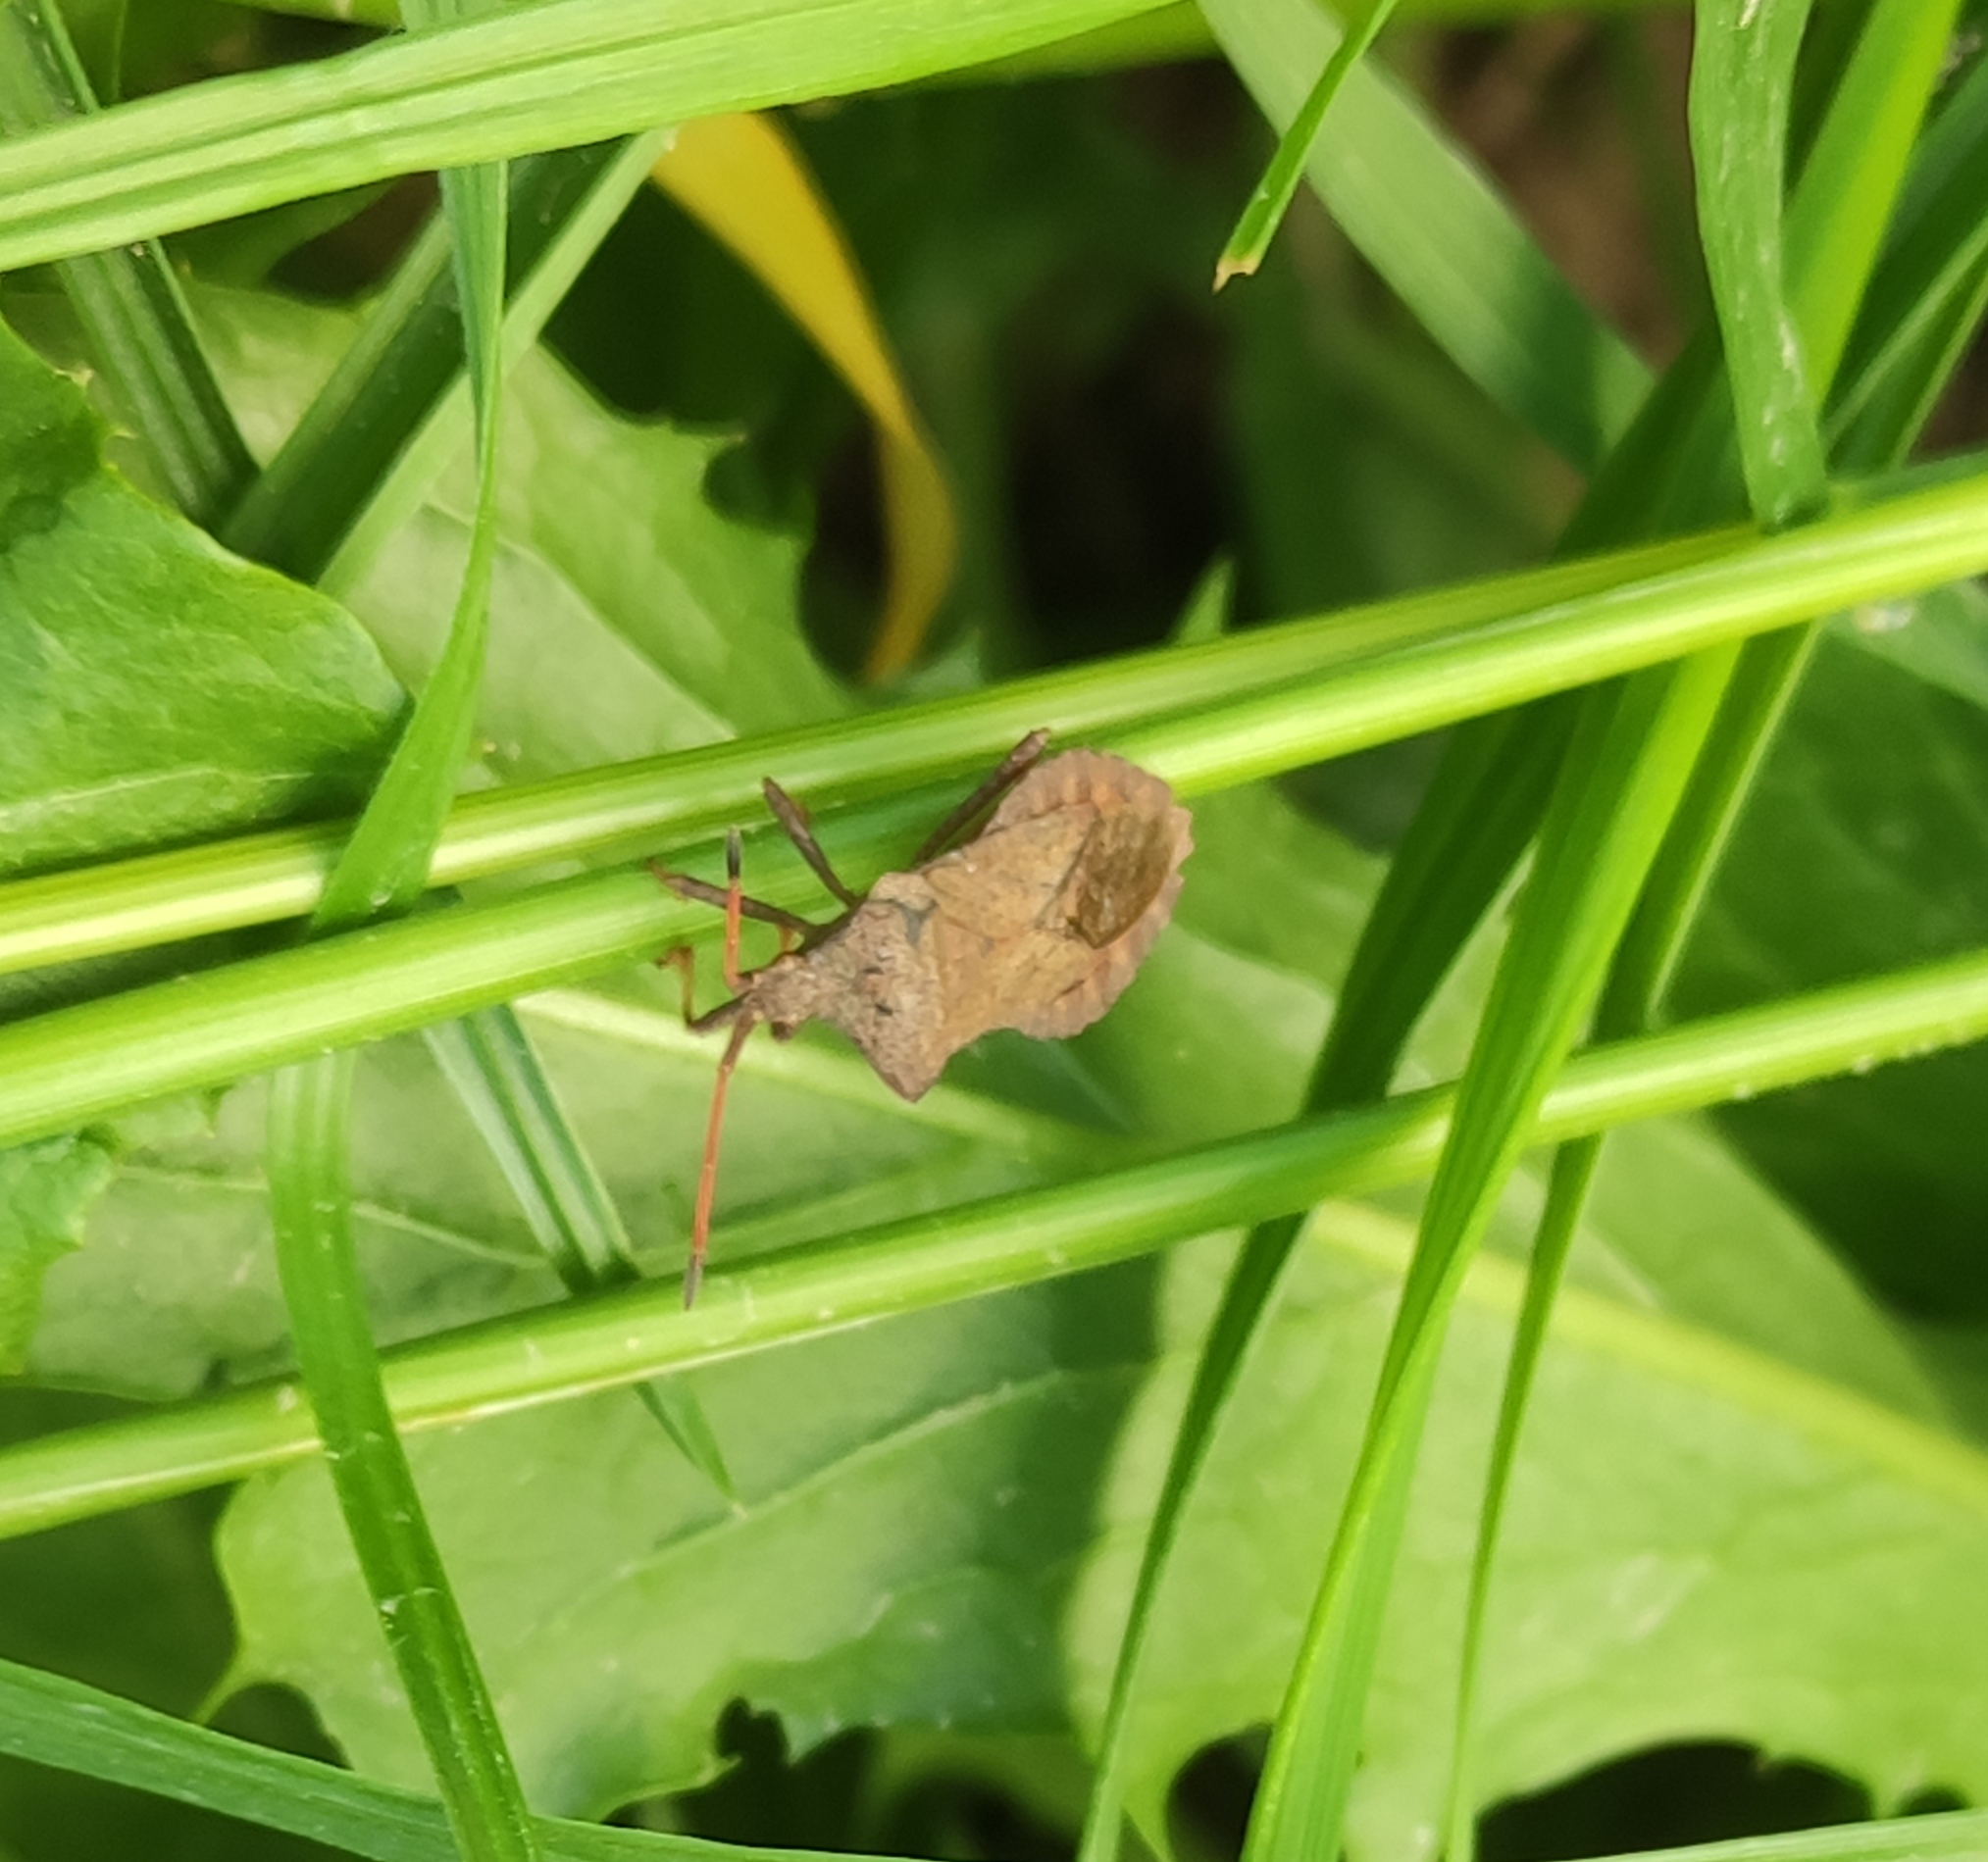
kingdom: Animalia
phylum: Arthropoda
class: Insecta
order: Hemiptera
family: Coreidae
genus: Coreus
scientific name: Coreus marginatus
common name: Dock bug
